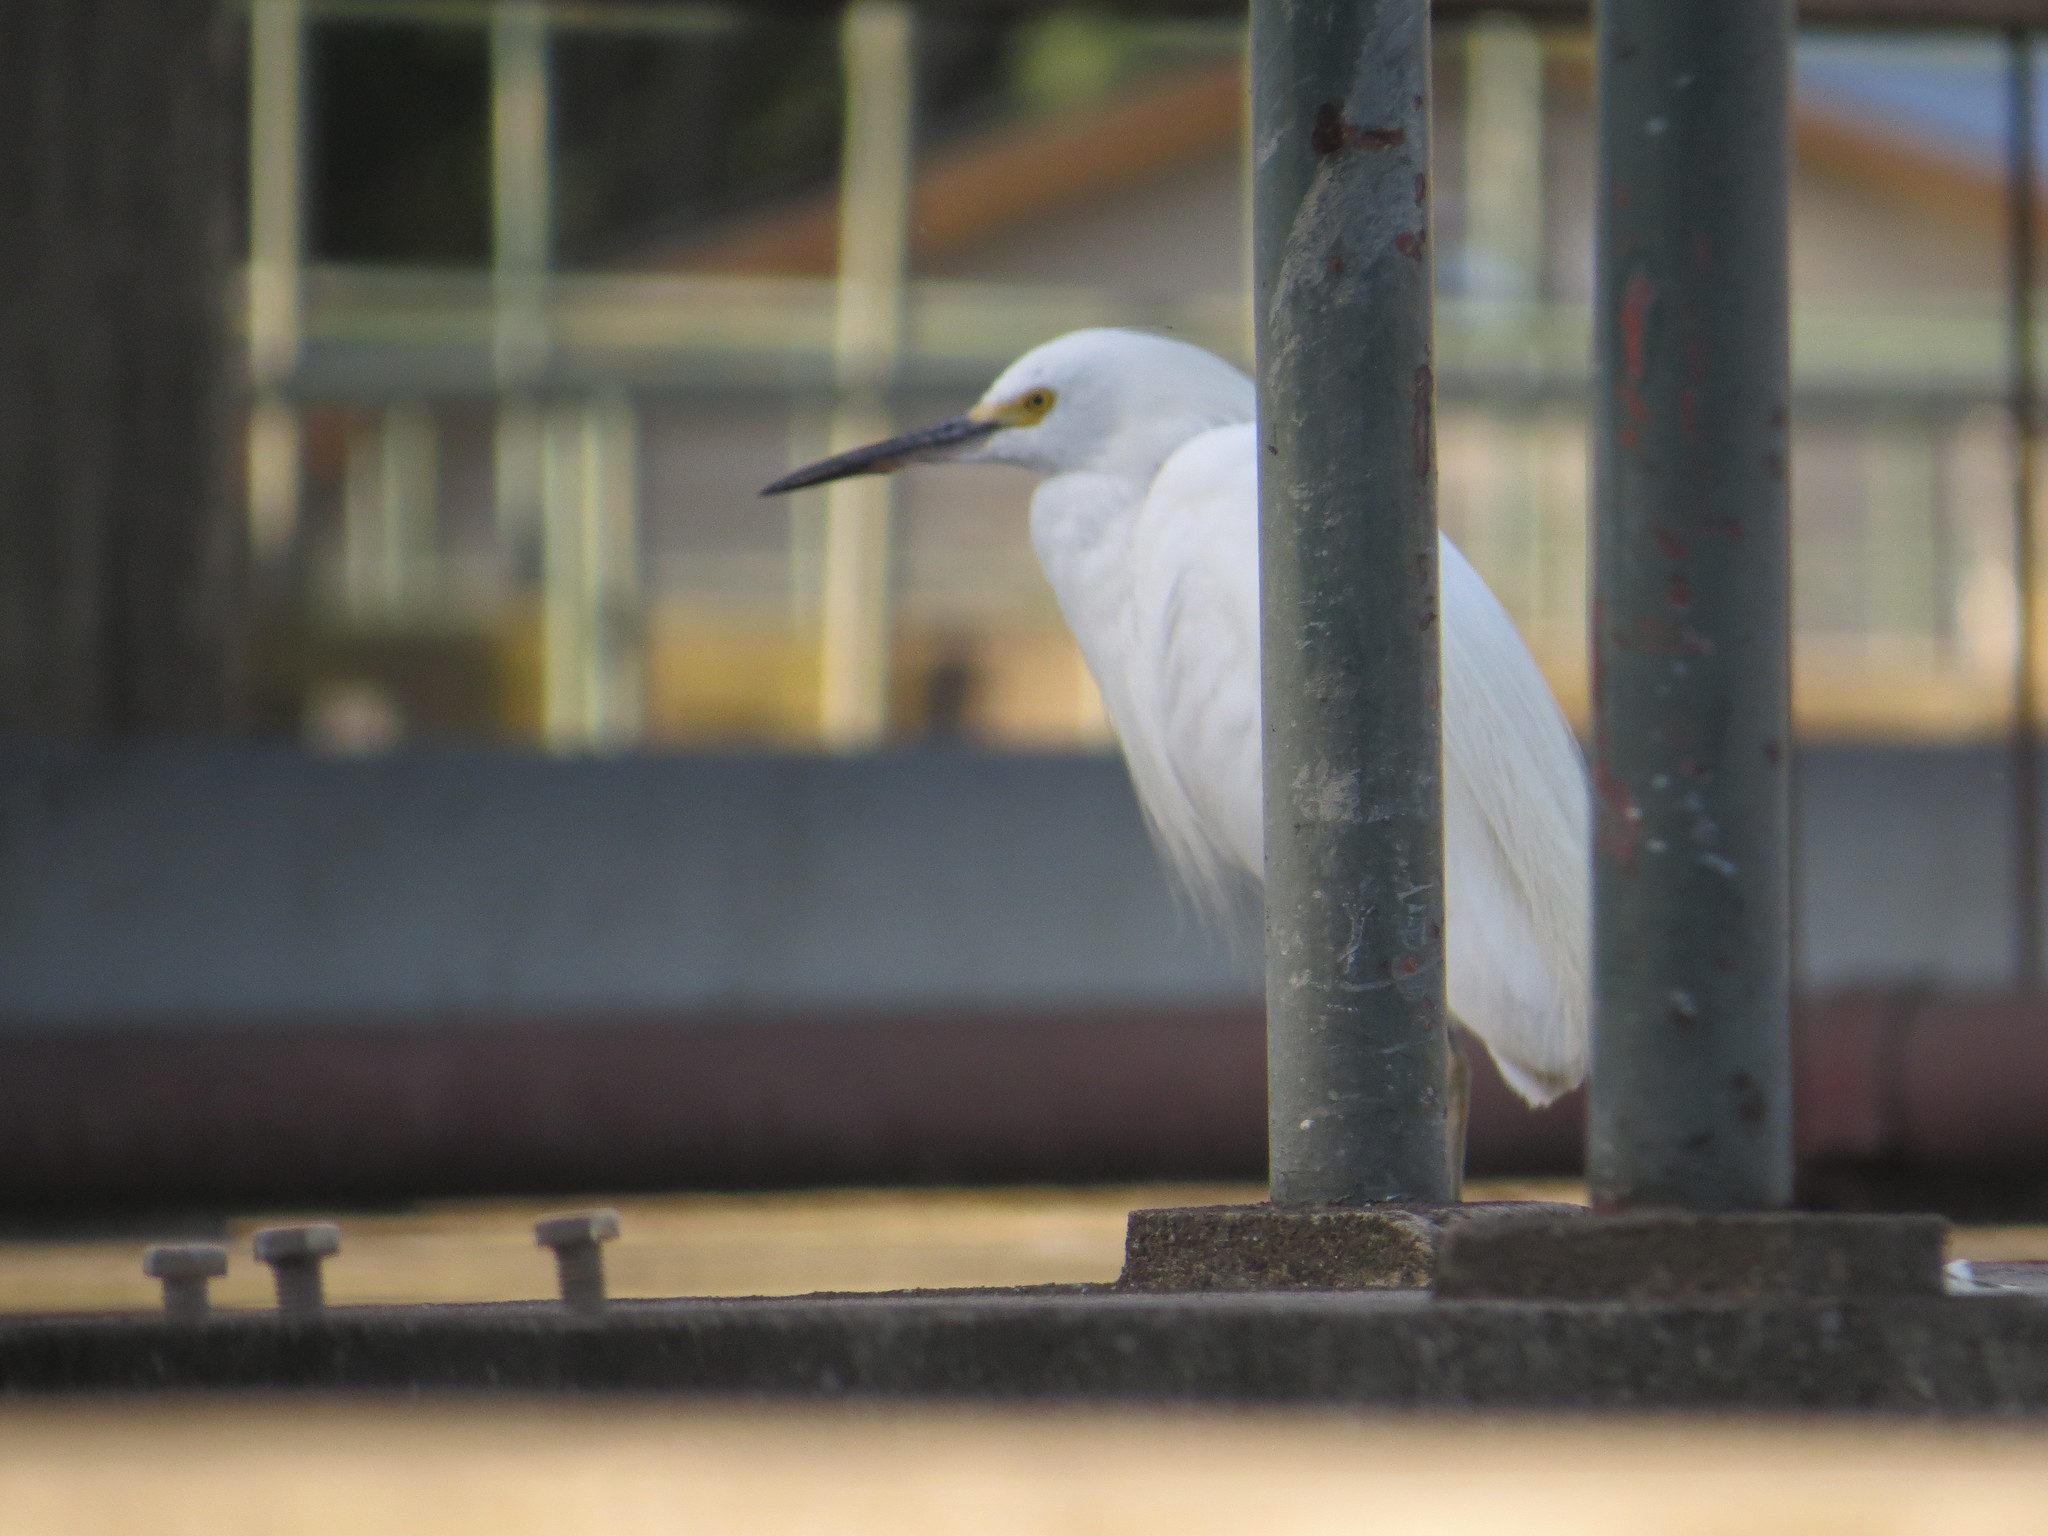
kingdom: Animalia
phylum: Chordata
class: Aves
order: Pelecaniformes
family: Ardeidae
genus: Egretta
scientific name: Egretta thula
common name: Snowy egret
